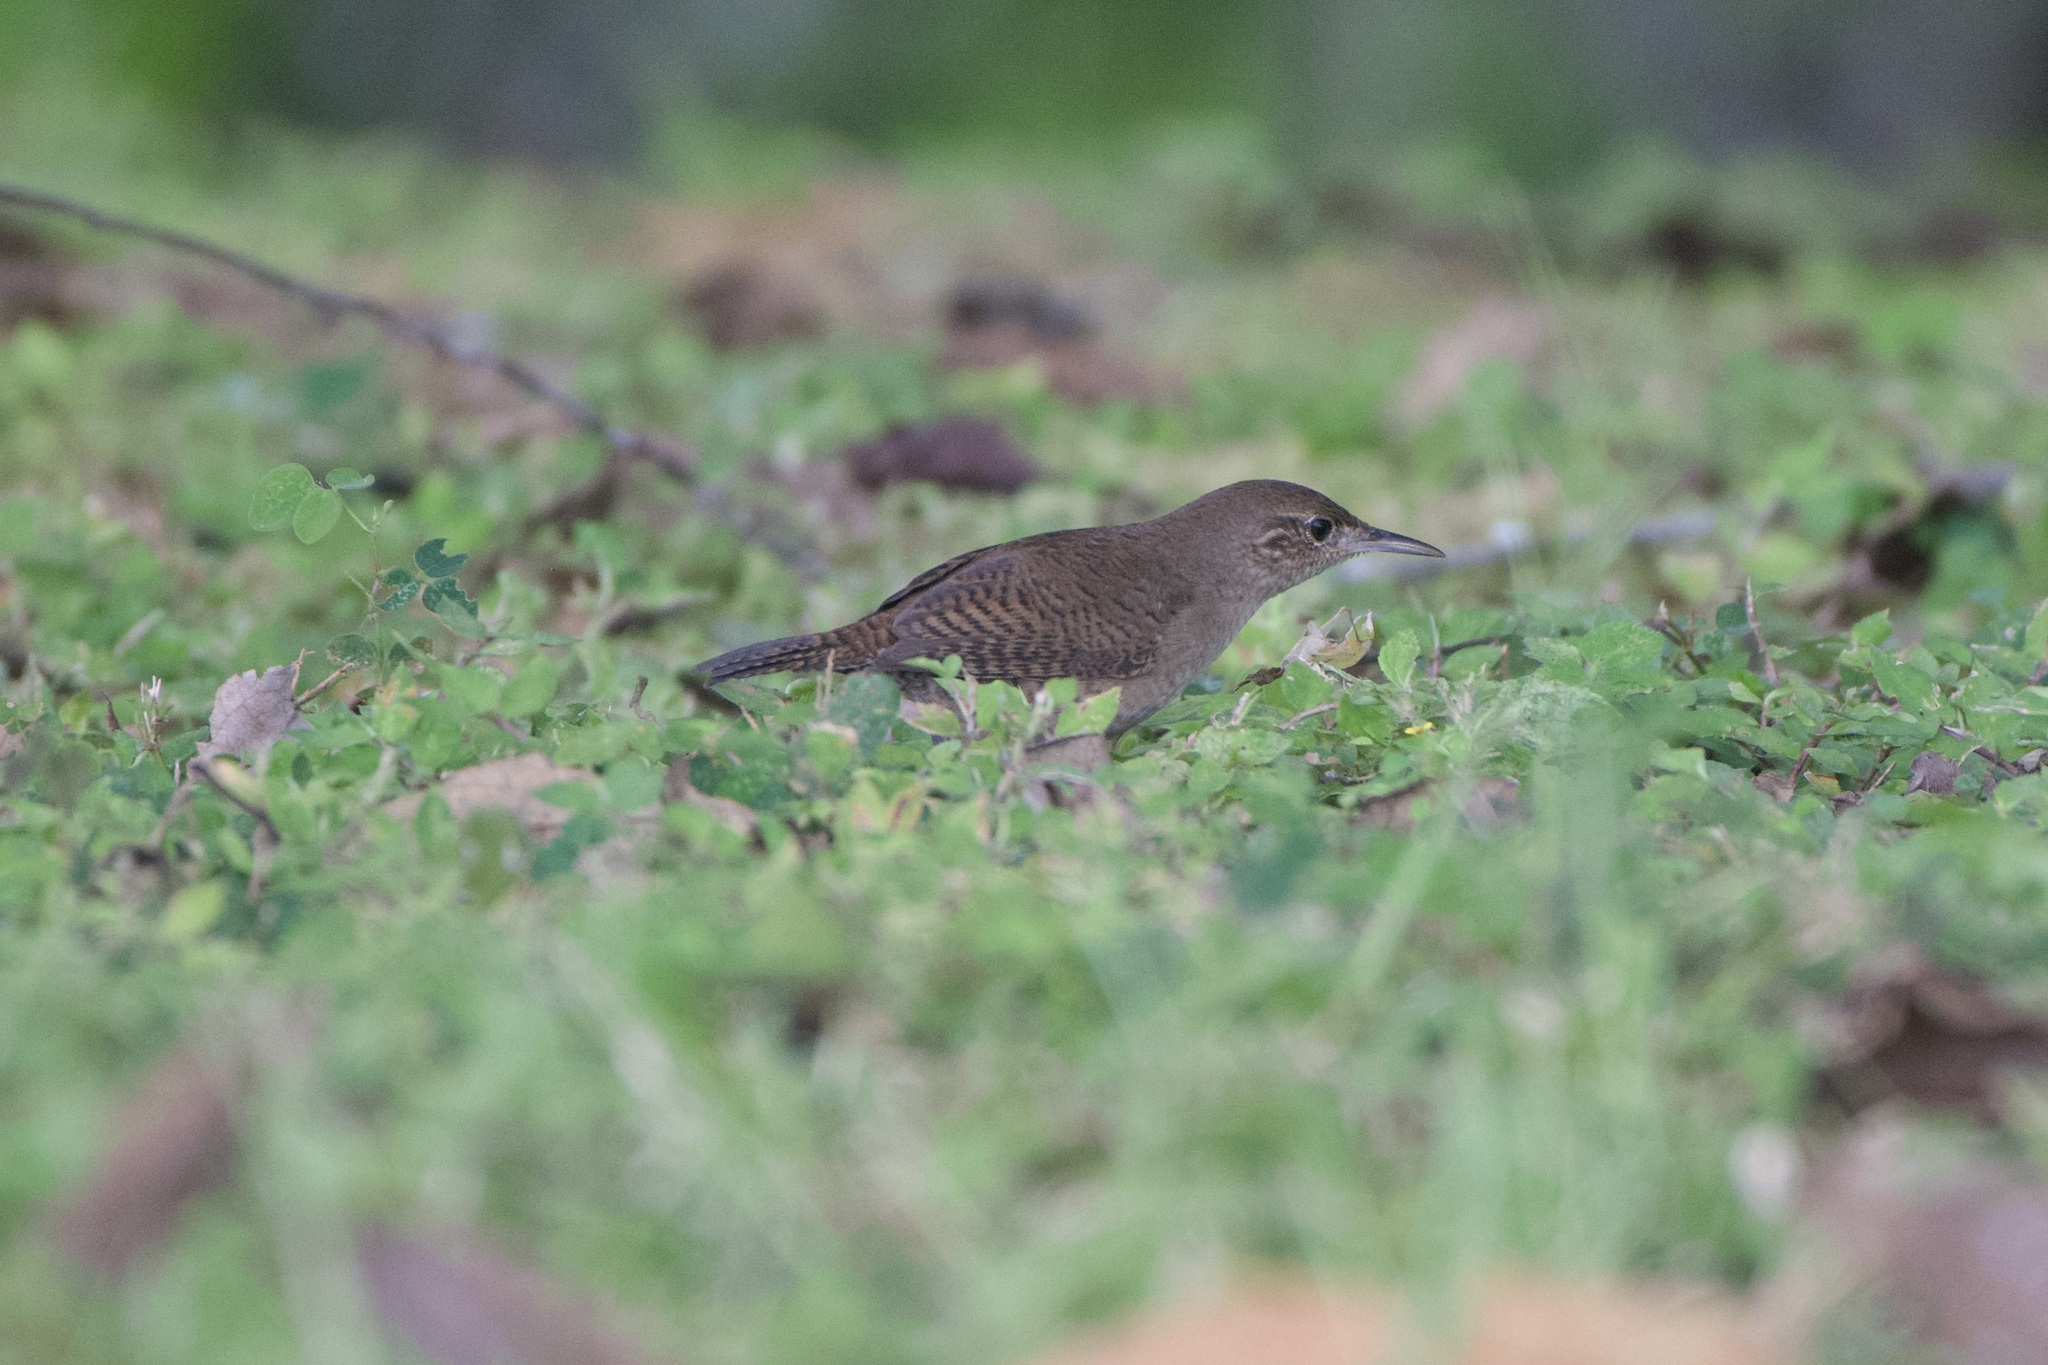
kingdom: Animalia
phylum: Chordata
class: Aves
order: Passeriformes
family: Troglodytidae
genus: Troglodytes
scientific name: Troglodytes aedon
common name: House wren
